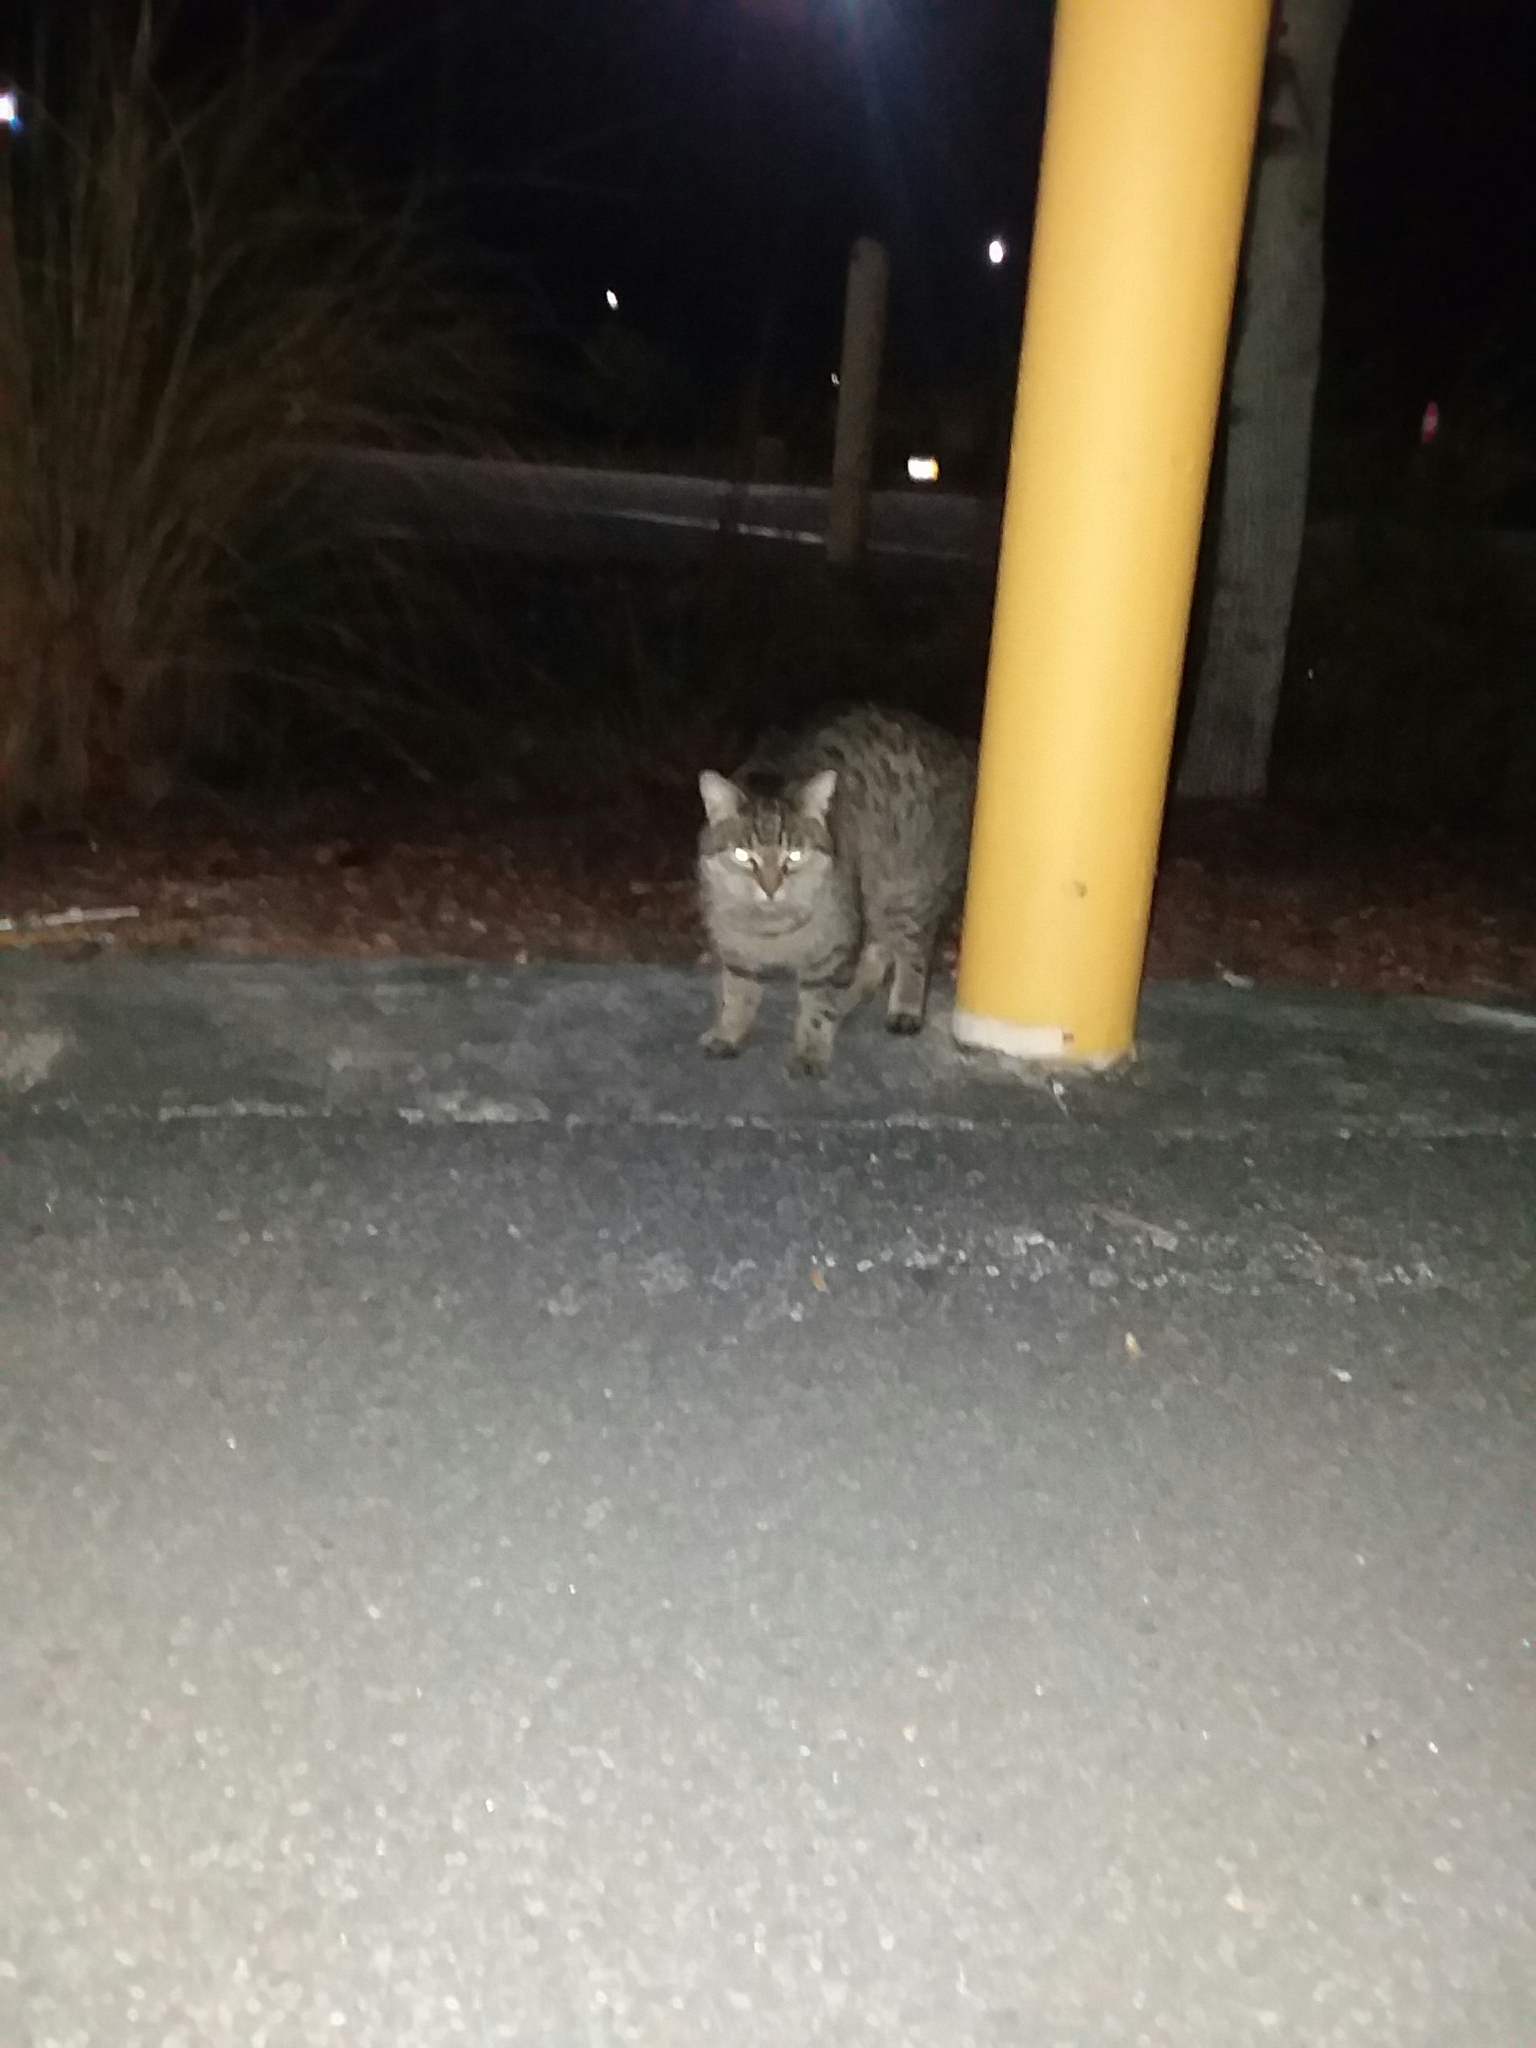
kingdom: Animalia
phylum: Chordata
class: Mammalia
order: Carnivora
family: Felidae
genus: Felis
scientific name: Felis catus
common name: Domestic cat
